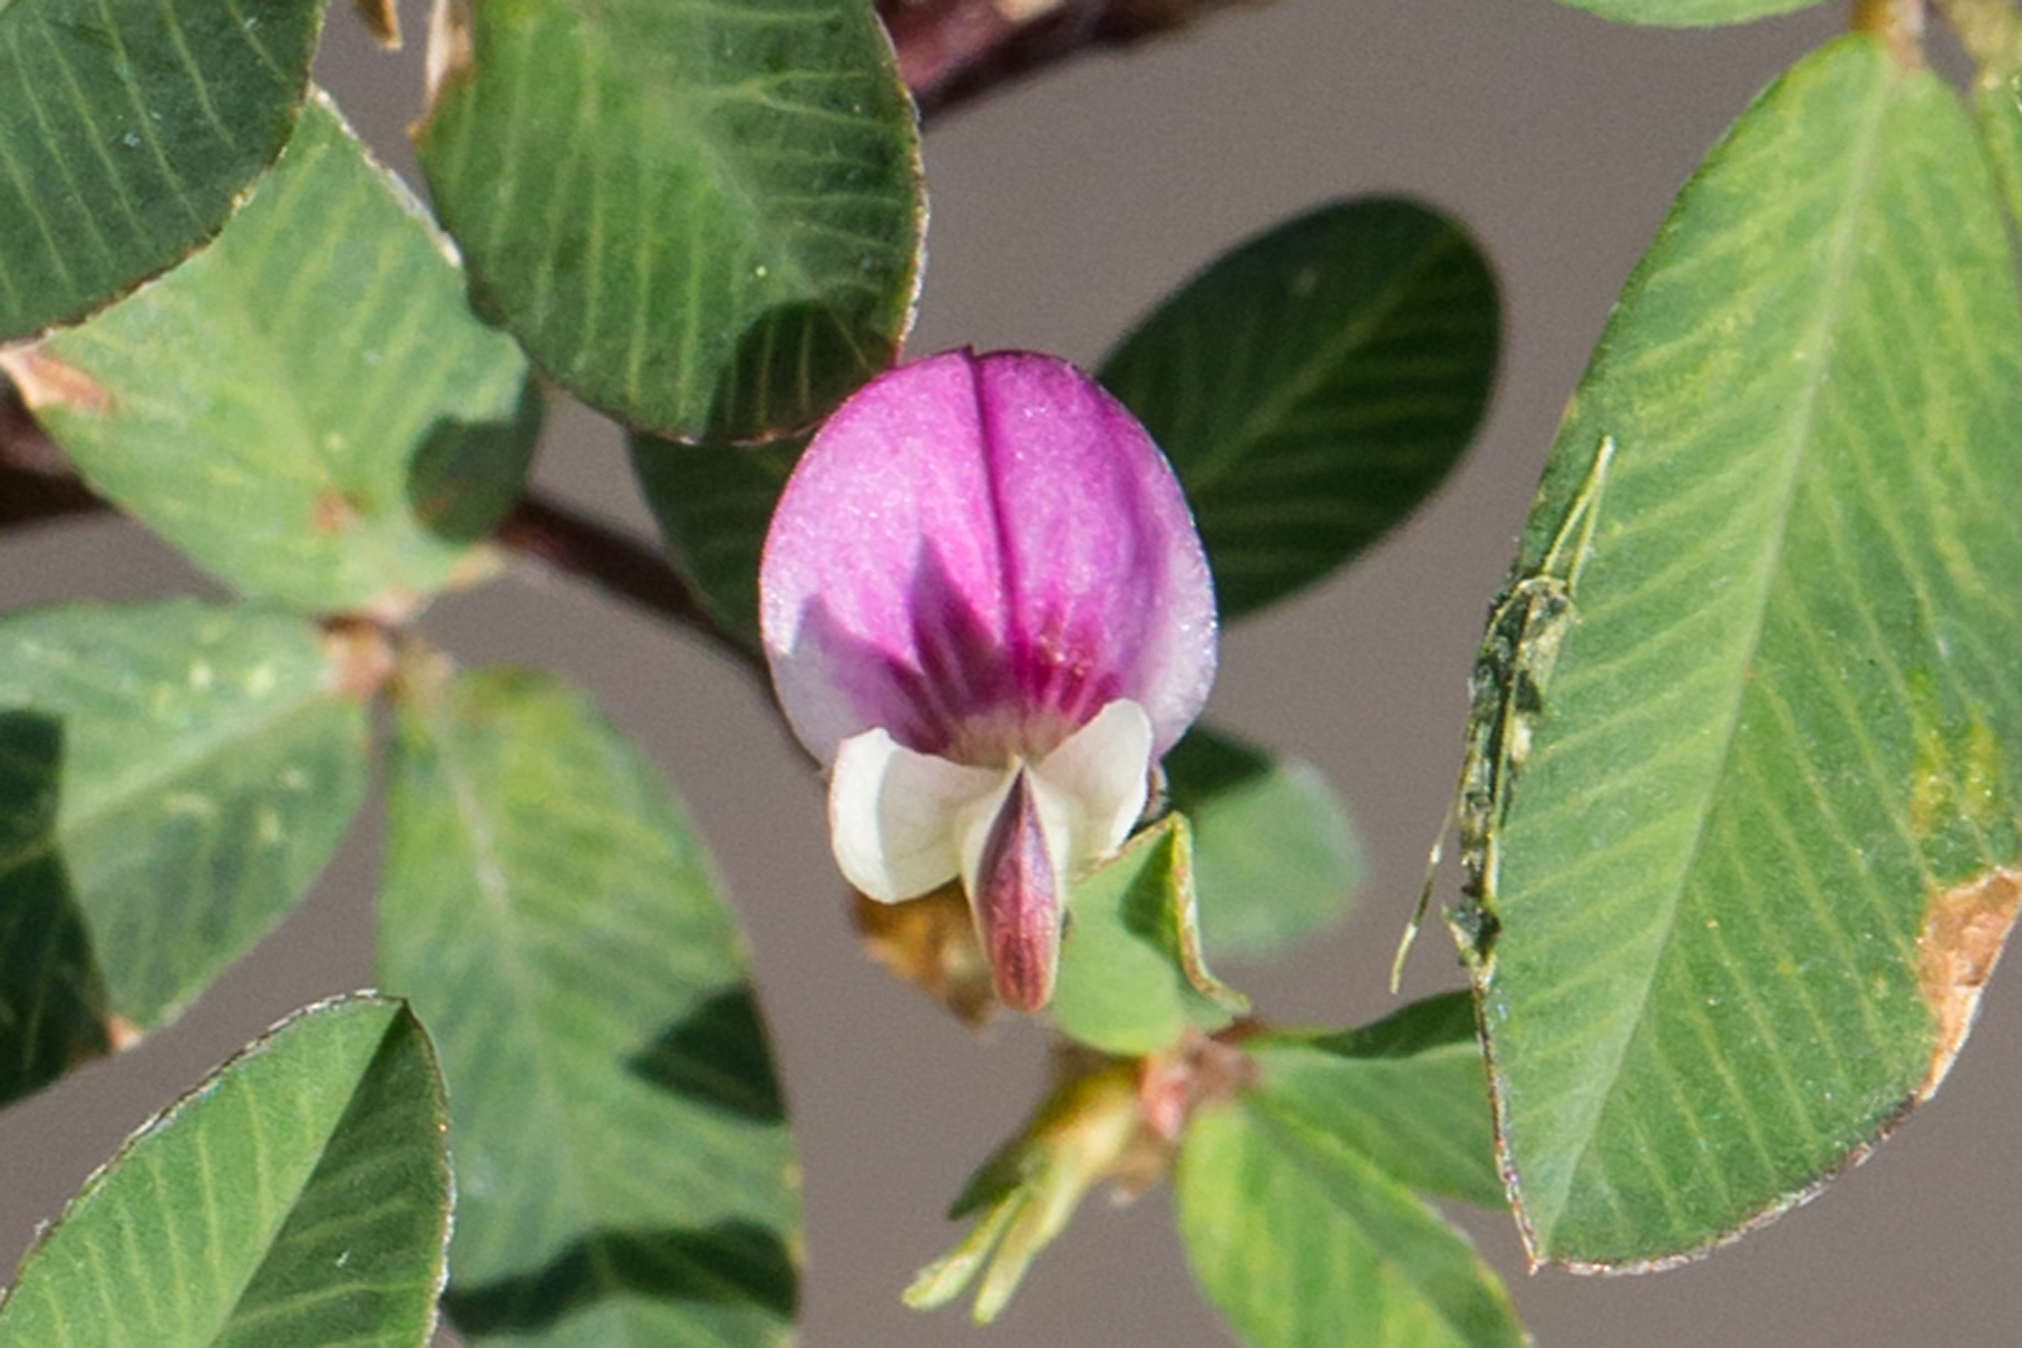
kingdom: Plantae
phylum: Tracheophyta
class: Magnoliopsida
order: Fabales
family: Fabaceae
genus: Kummerowia
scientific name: Kummerowia striata
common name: Japanese clover
